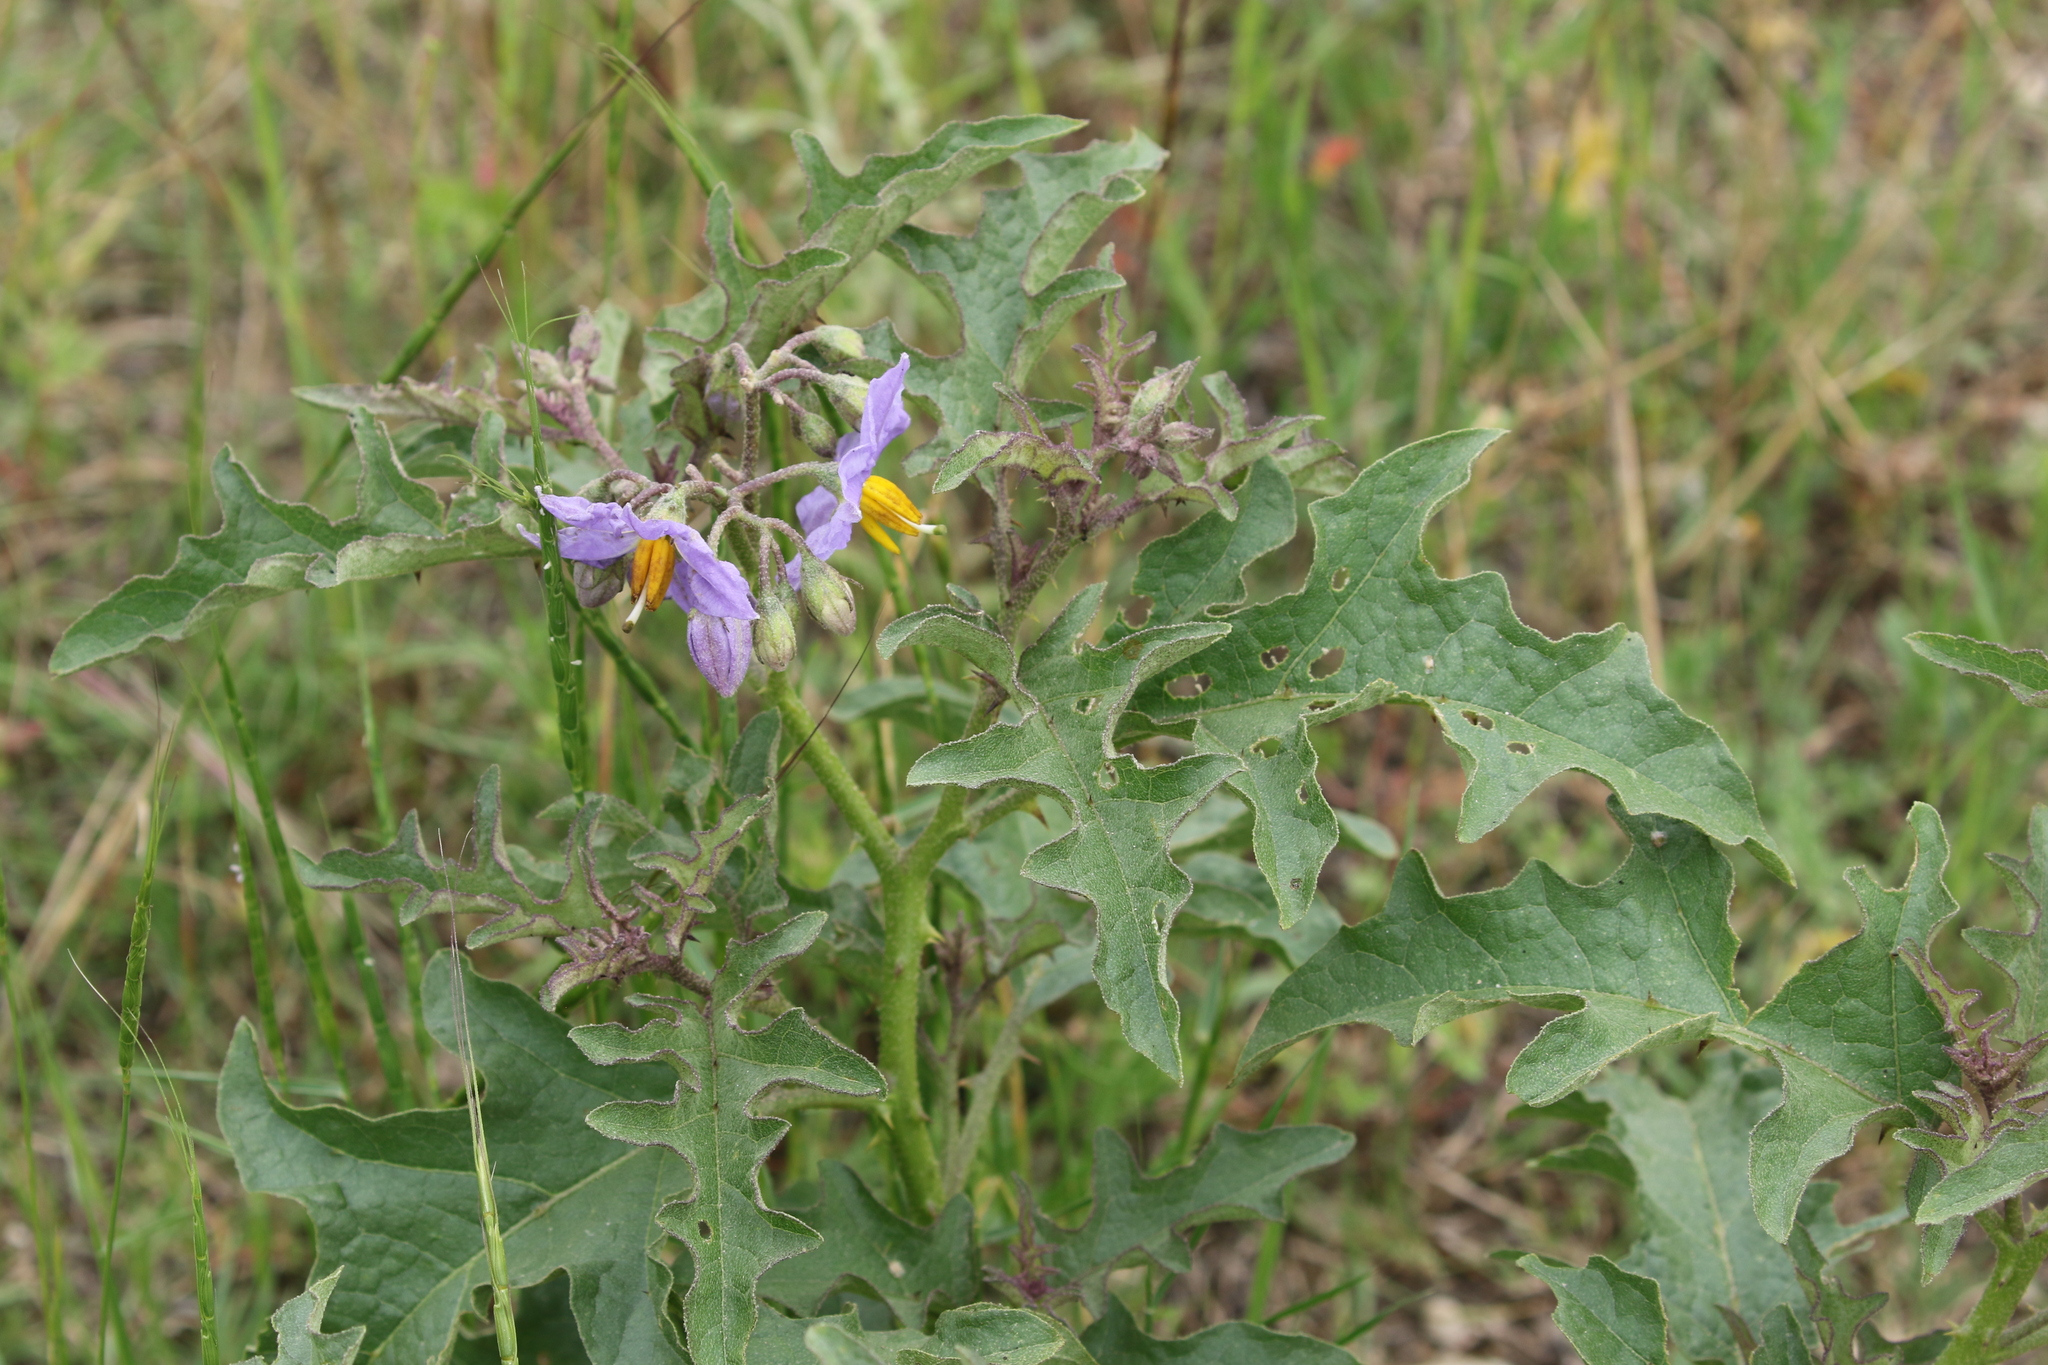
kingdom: Plantae
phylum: Tracheophyta
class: Magnoliopsida
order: Solanales
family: Solanaceae
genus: Solanum
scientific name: Solanum dimidiatum
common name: Carolina horse-nettle
